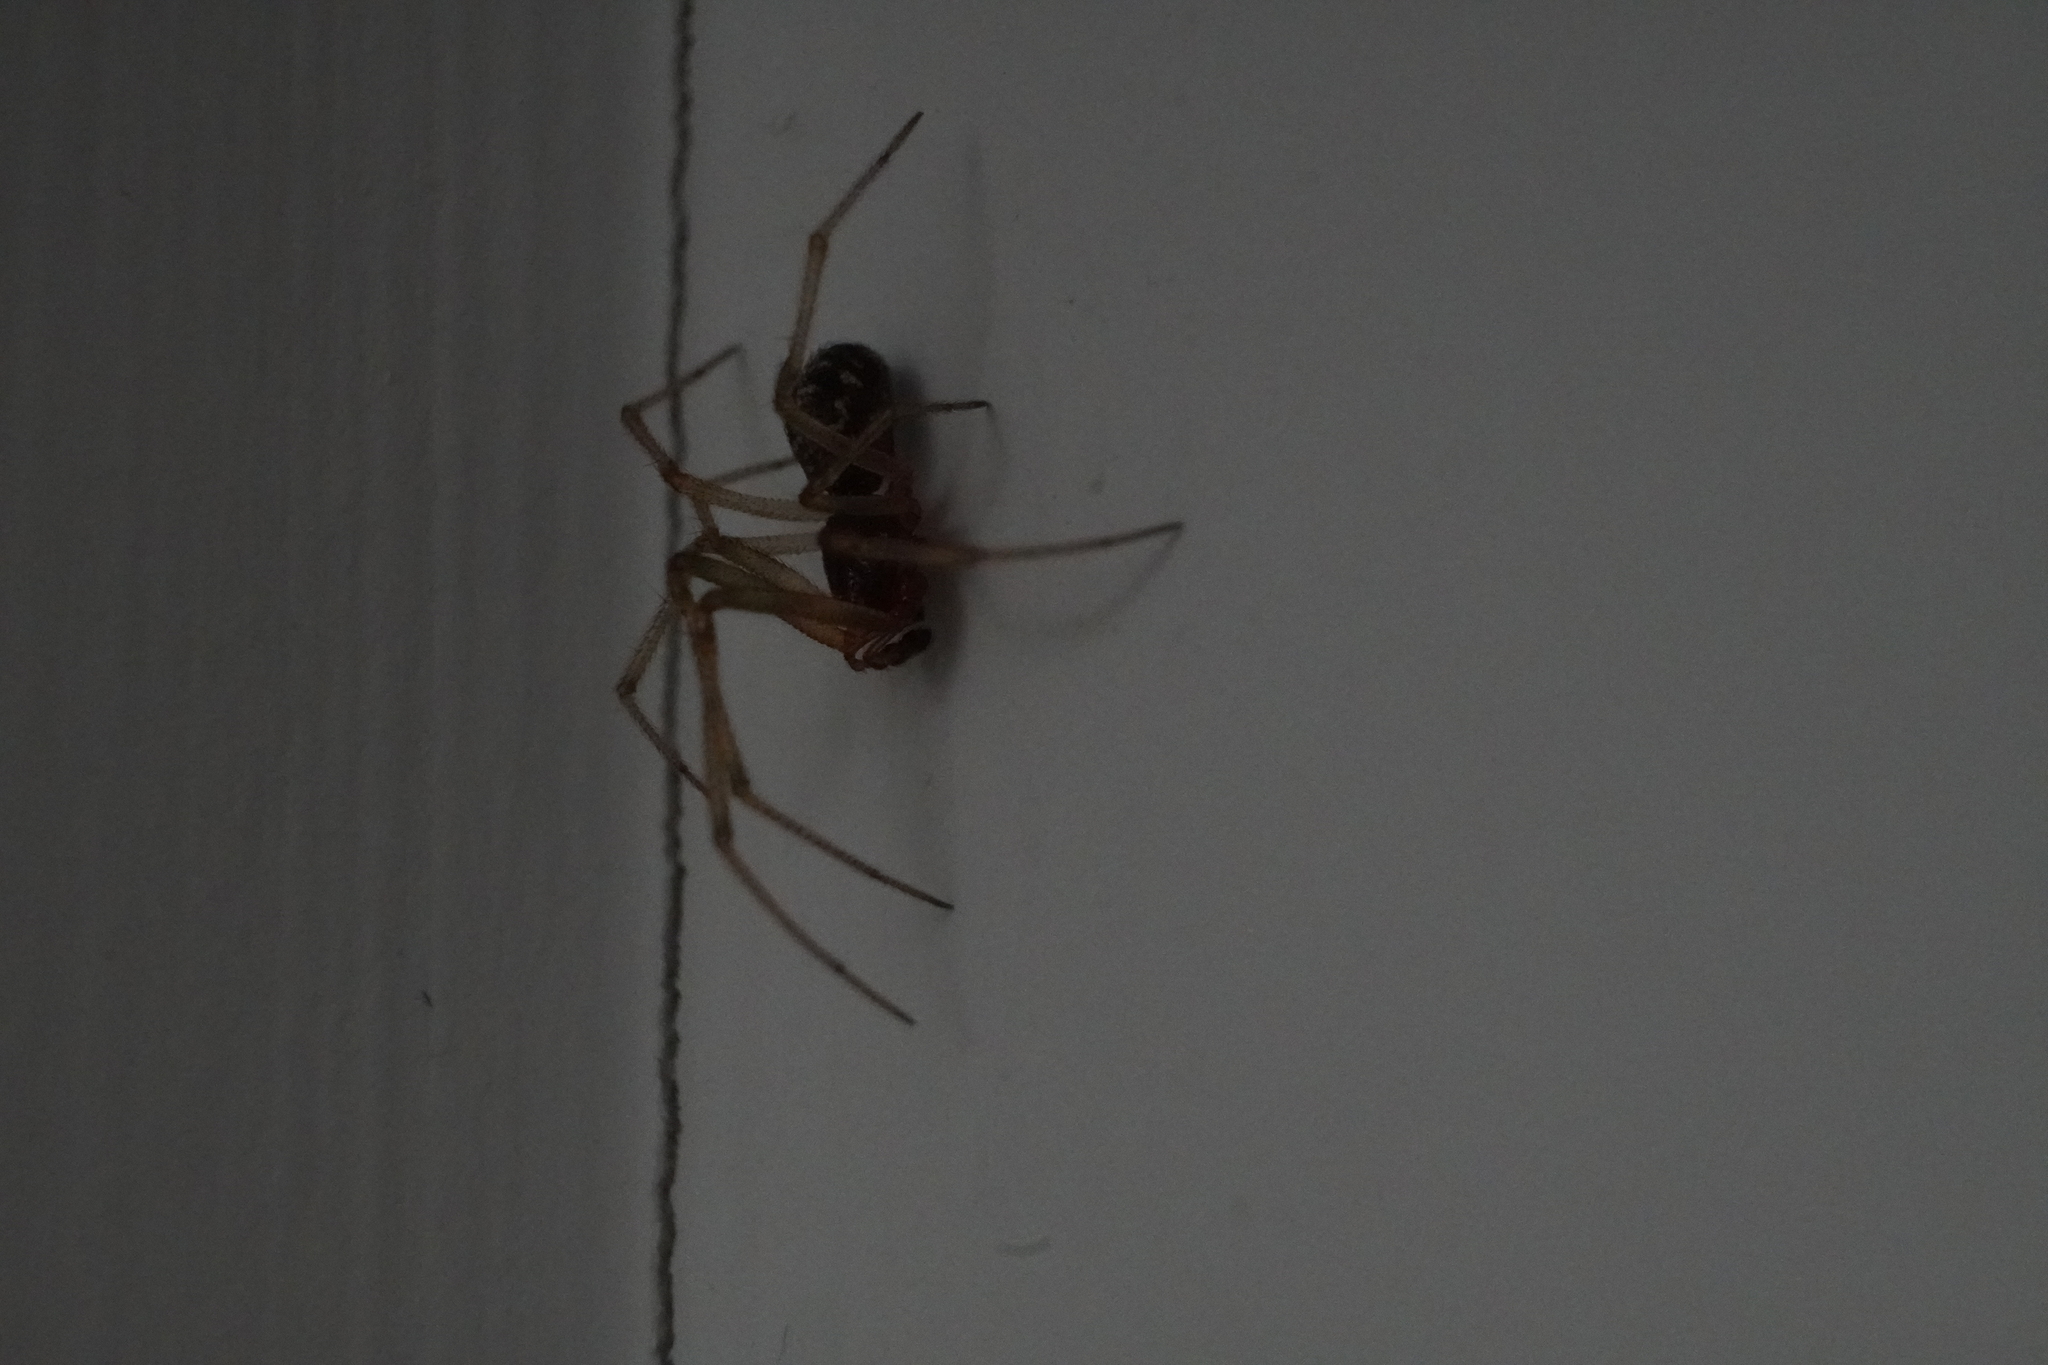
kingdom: Animalia
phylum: Arthropoda
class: Arachnida
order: Araneae
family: Theridiidae
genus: Steatoda
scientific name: Steatoda triangulosa
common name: Triangulate bud spider
